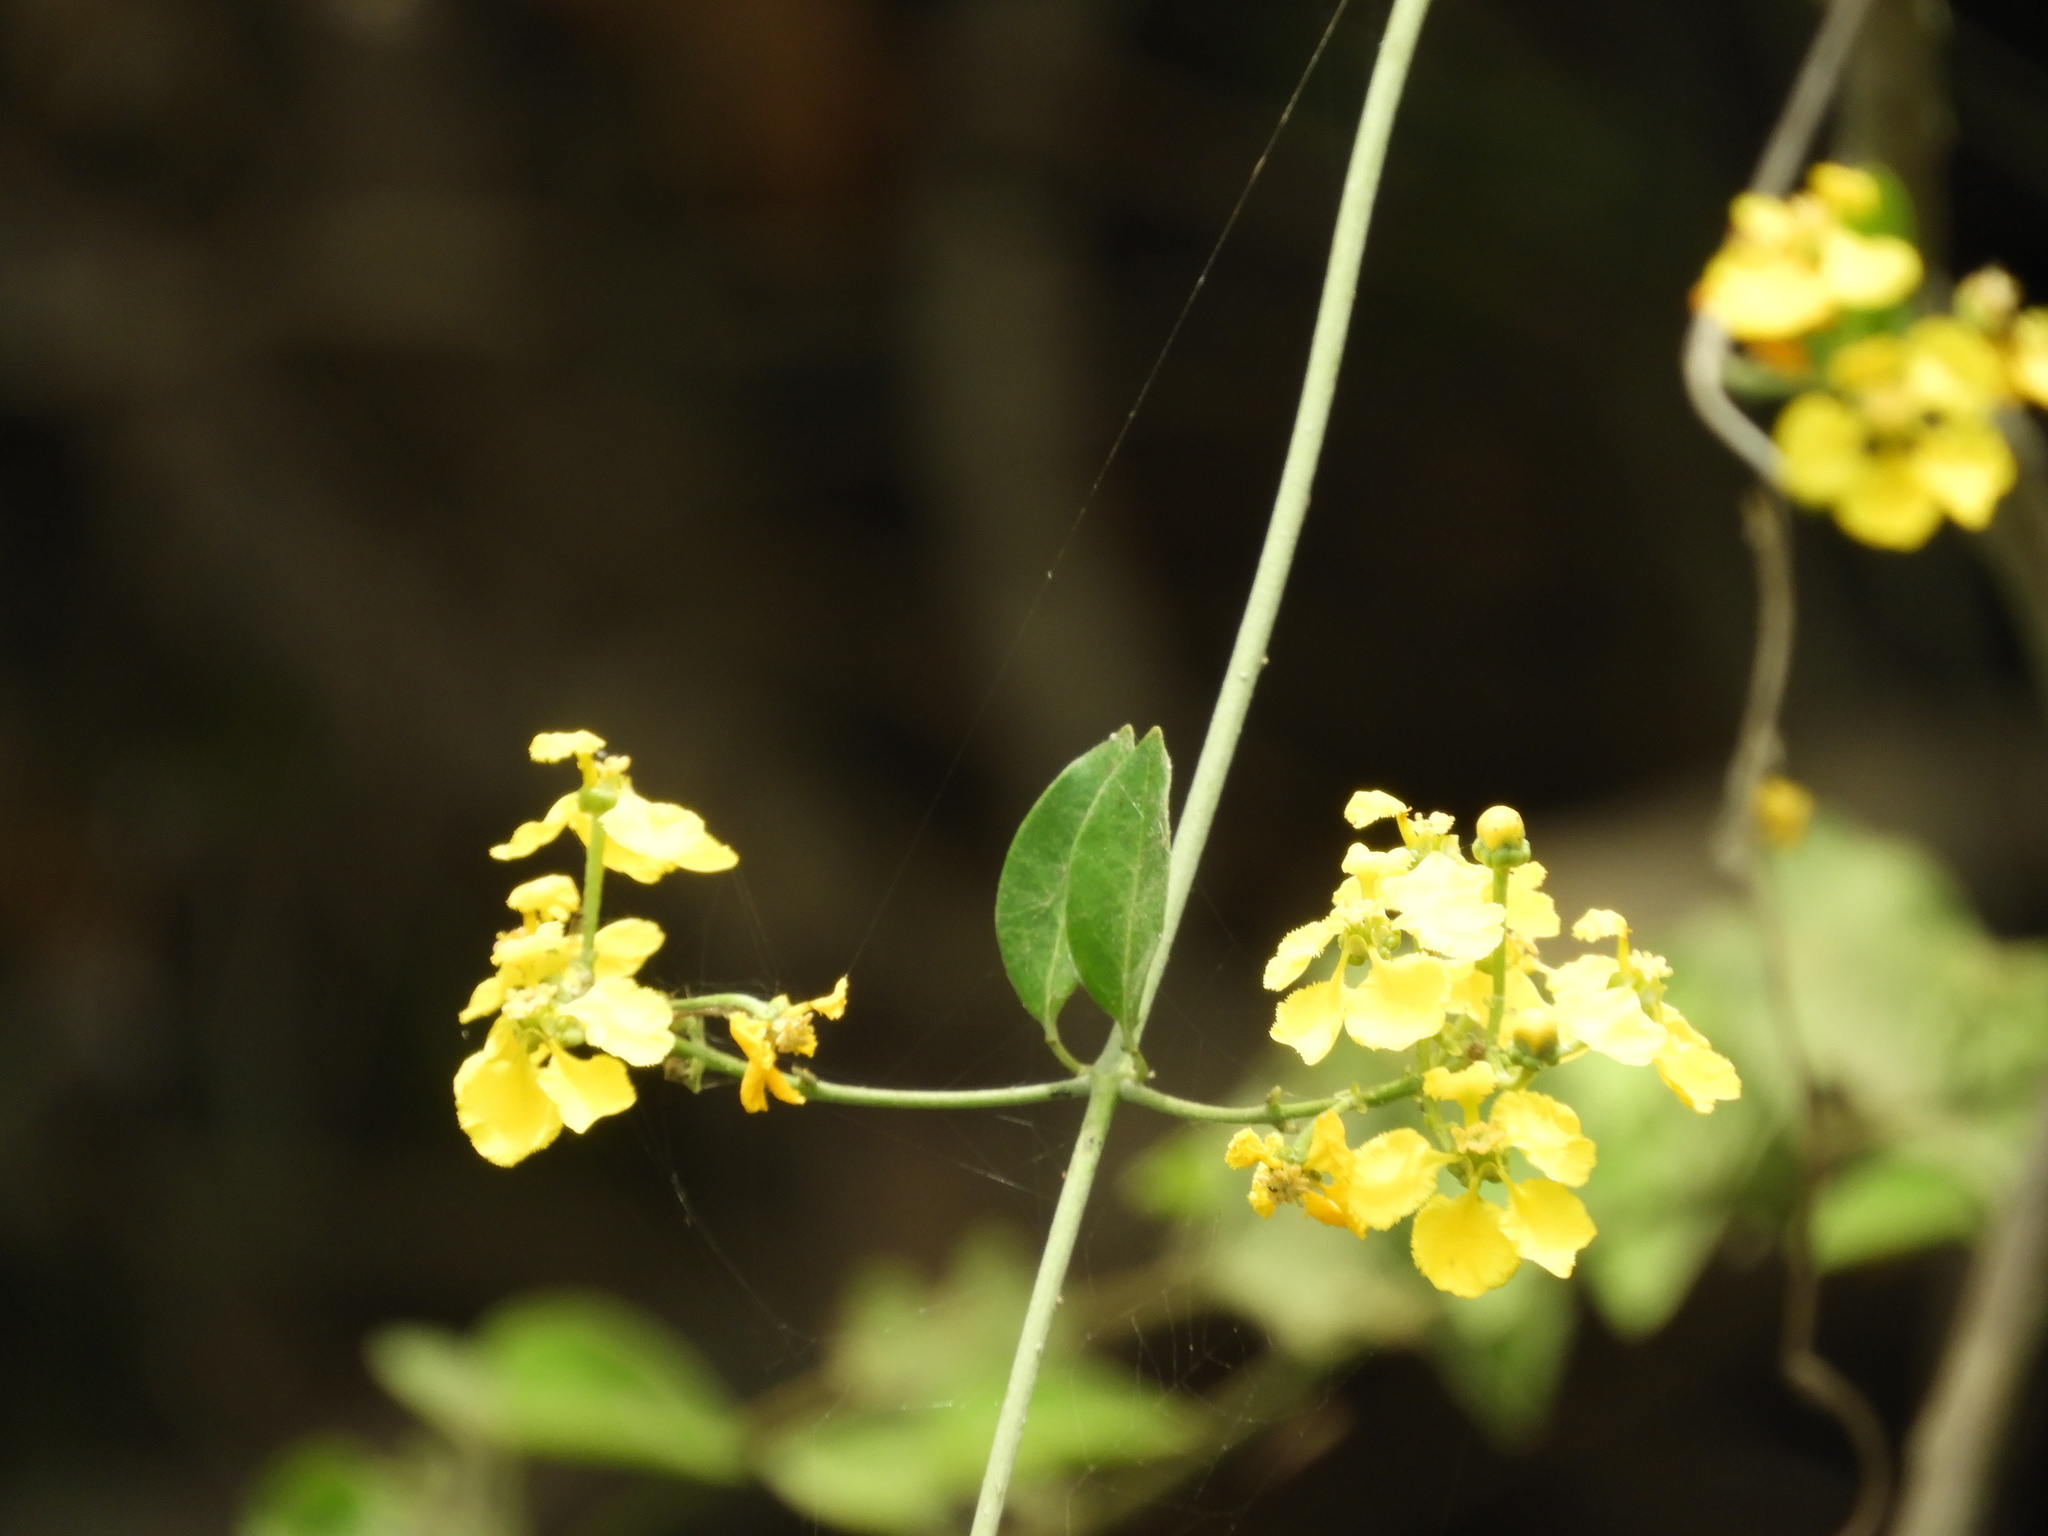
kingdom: Plantae
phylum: Tracheophyta
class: Magnoliopsida
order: Malpighiales
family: Malpighiaceae
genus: Callaeum
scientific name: Callaeum macropterum
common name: Mexican butterfly-vine
